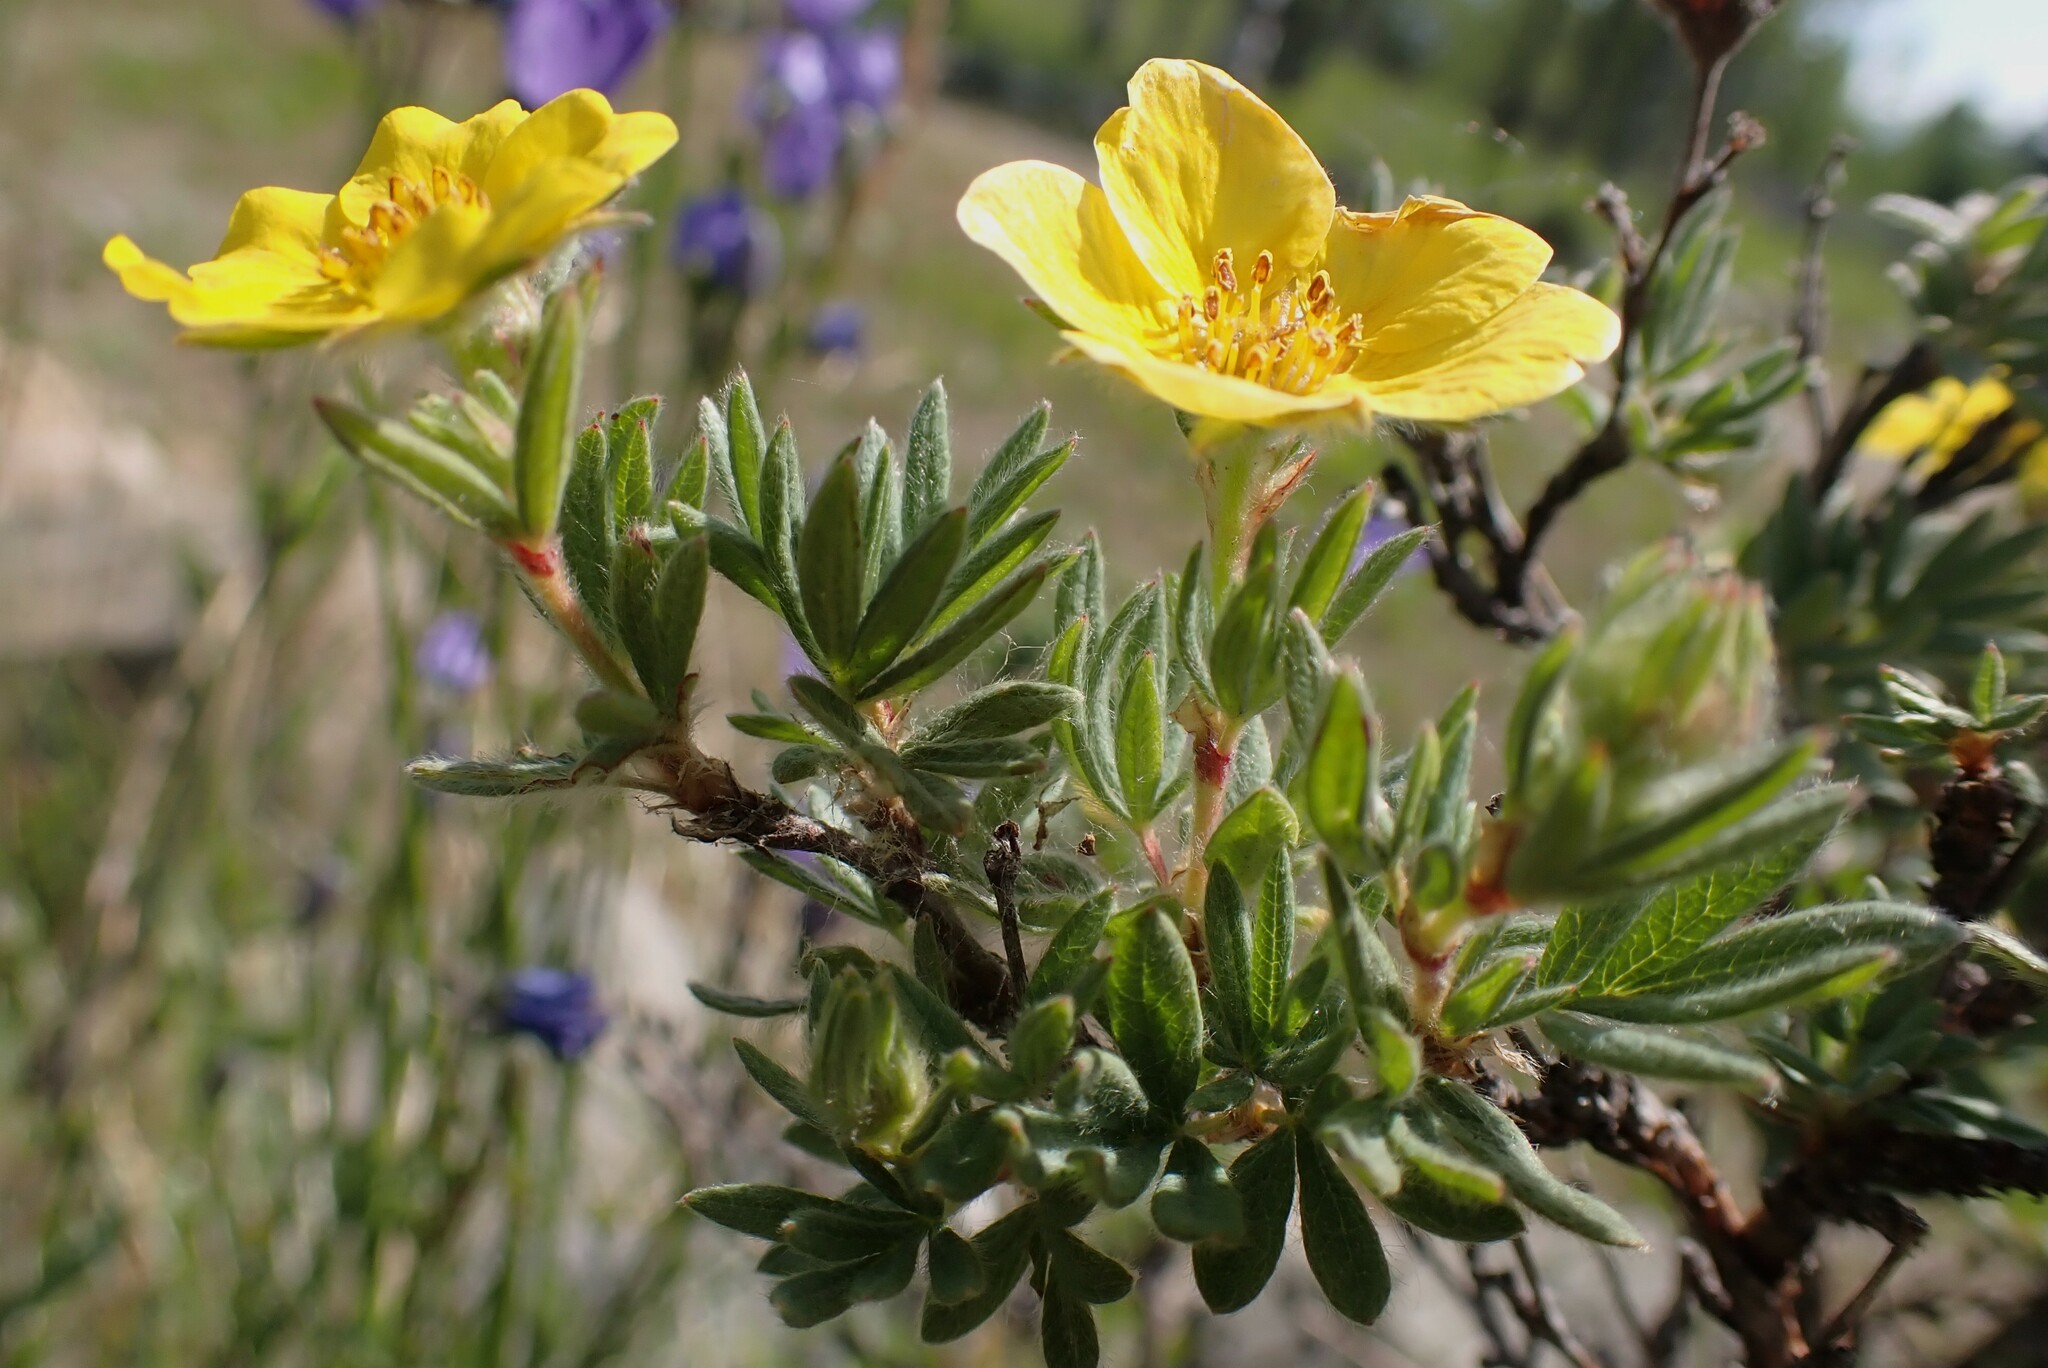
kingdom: Plantae
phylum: Tracheophyta
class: Magnoliopsida
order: Rosales
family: Rosaceae
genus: Dasiphora
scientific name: Dasiphora fruticosa
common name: Shrubby cinquefoil
